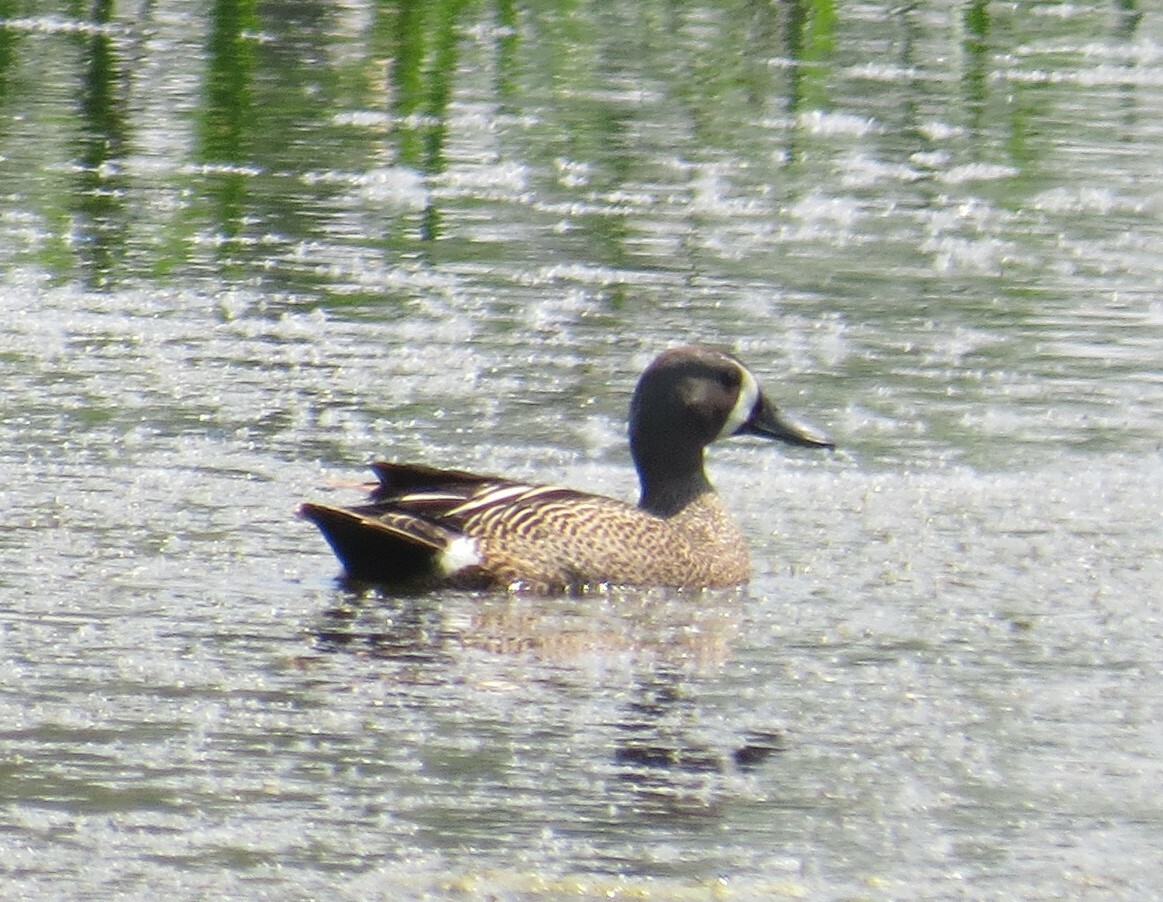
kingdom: Animalia
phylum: Chordata
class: Aves
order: Anseriformes
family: Anatidae
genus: Spatula
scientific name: Spatula discors
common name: Blue-winged teal
